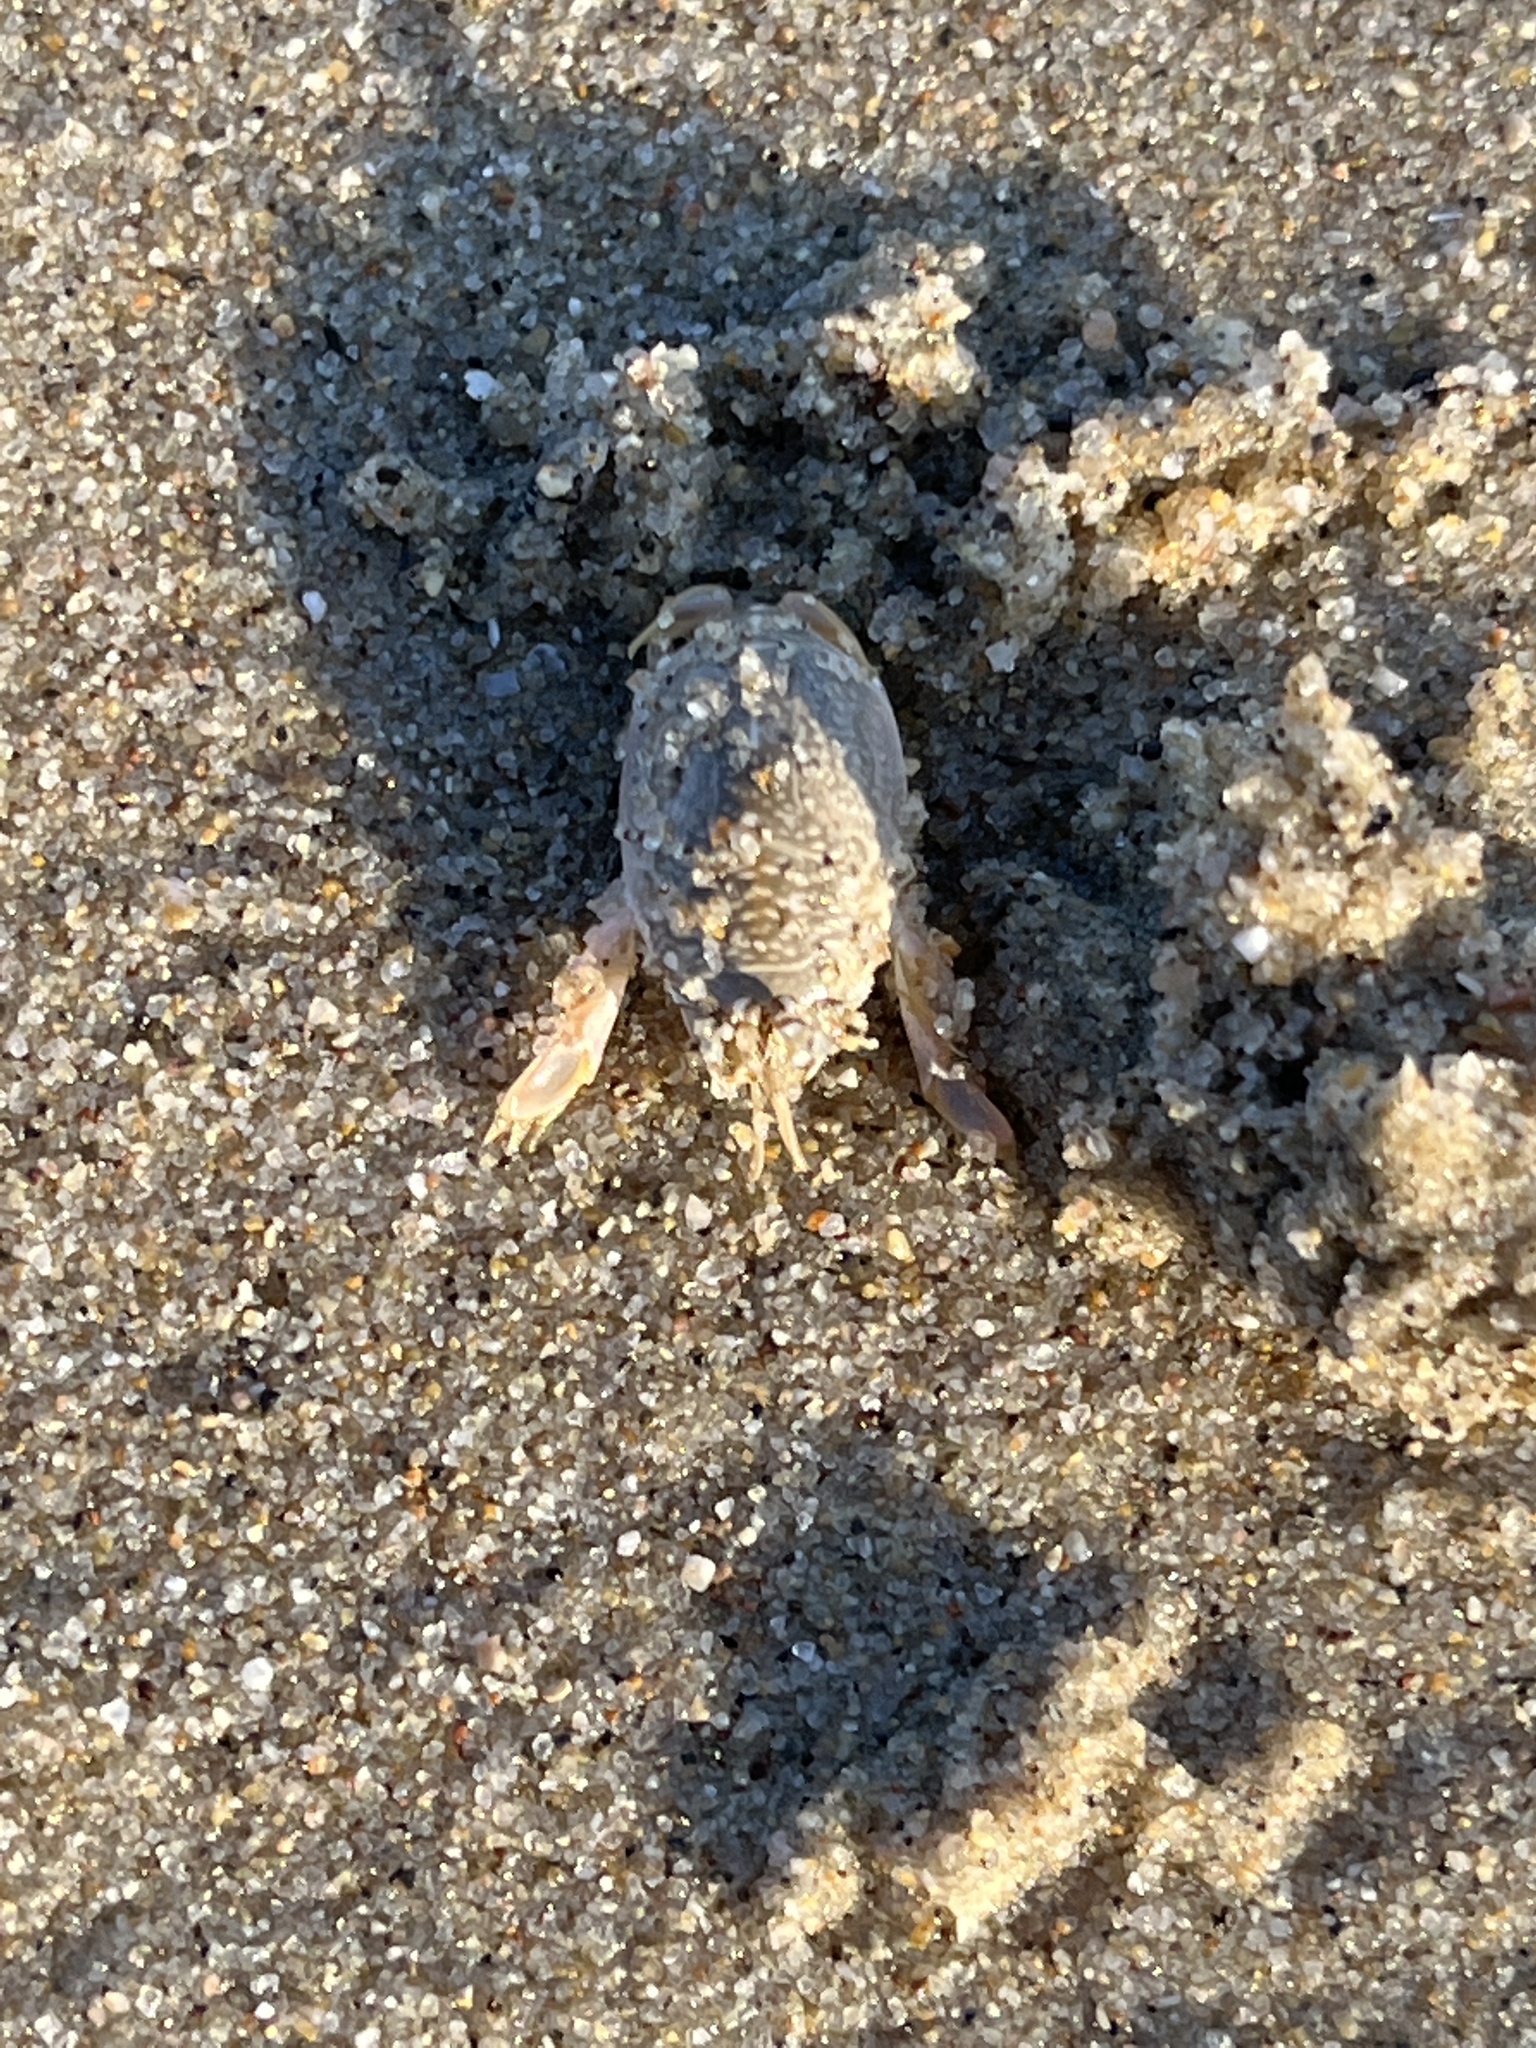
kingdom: Animalia
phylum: Arthropoda
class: Malacostraca
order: Decapoda
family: Hippidae
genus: Emerita
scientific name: Emerita analoga
